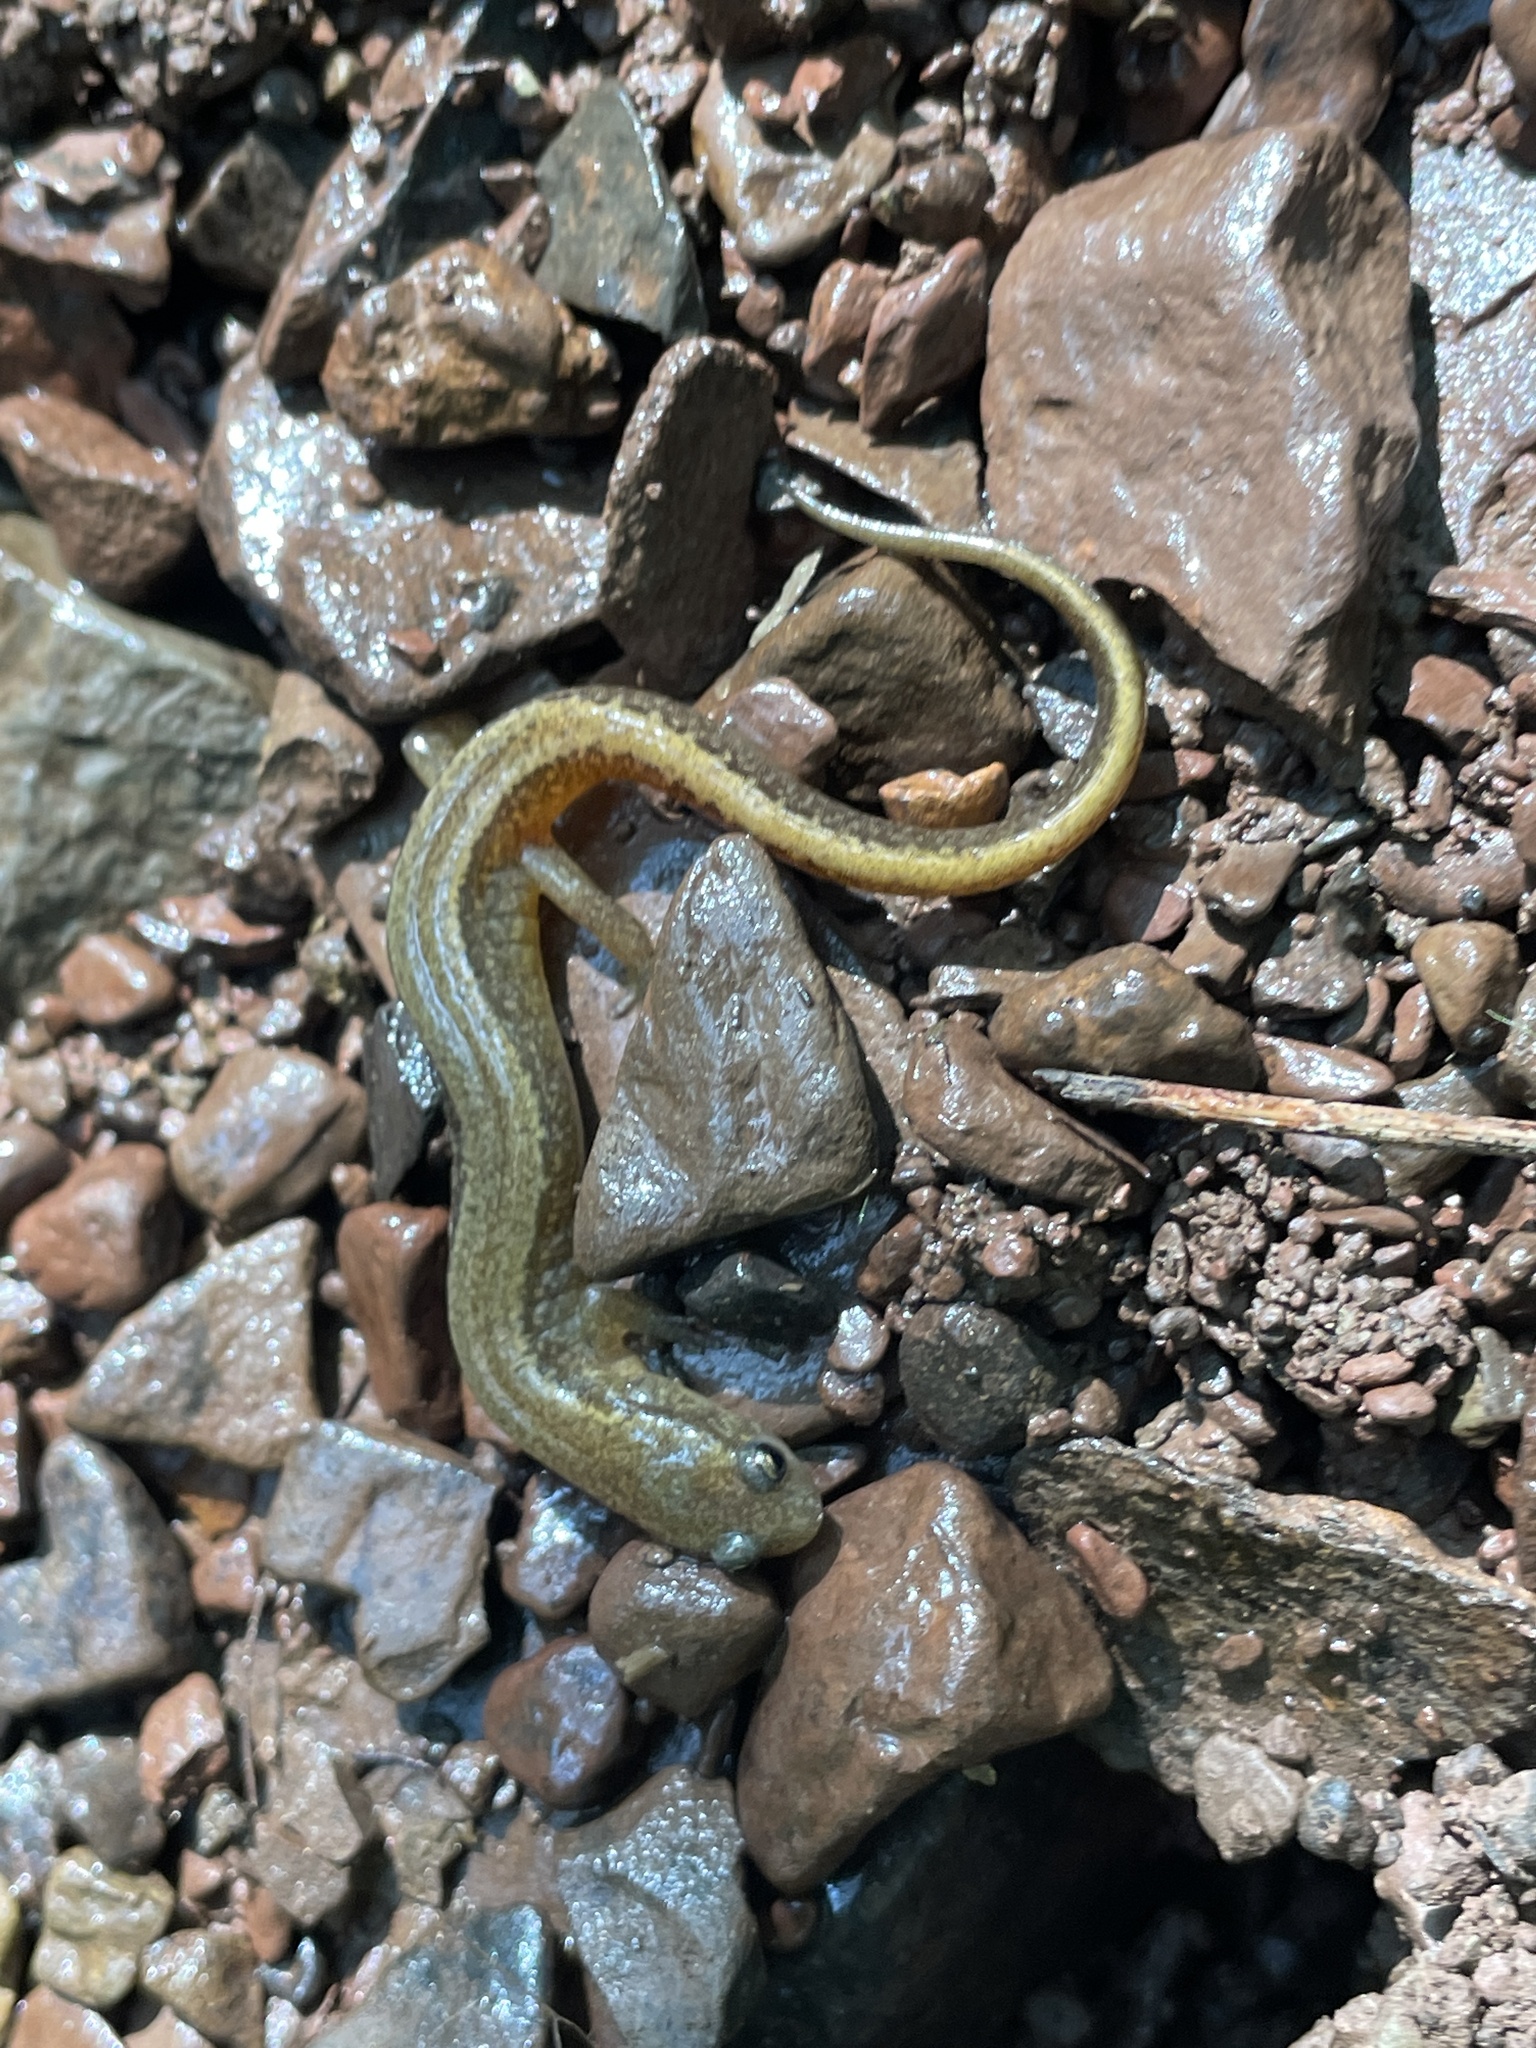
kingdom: Animalia
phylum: Chordata
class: Amphibia
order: Caudata
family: Plethodontidae
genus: Eurycea
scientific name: Eurycea bislineata
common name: Northern two-lined salamander
